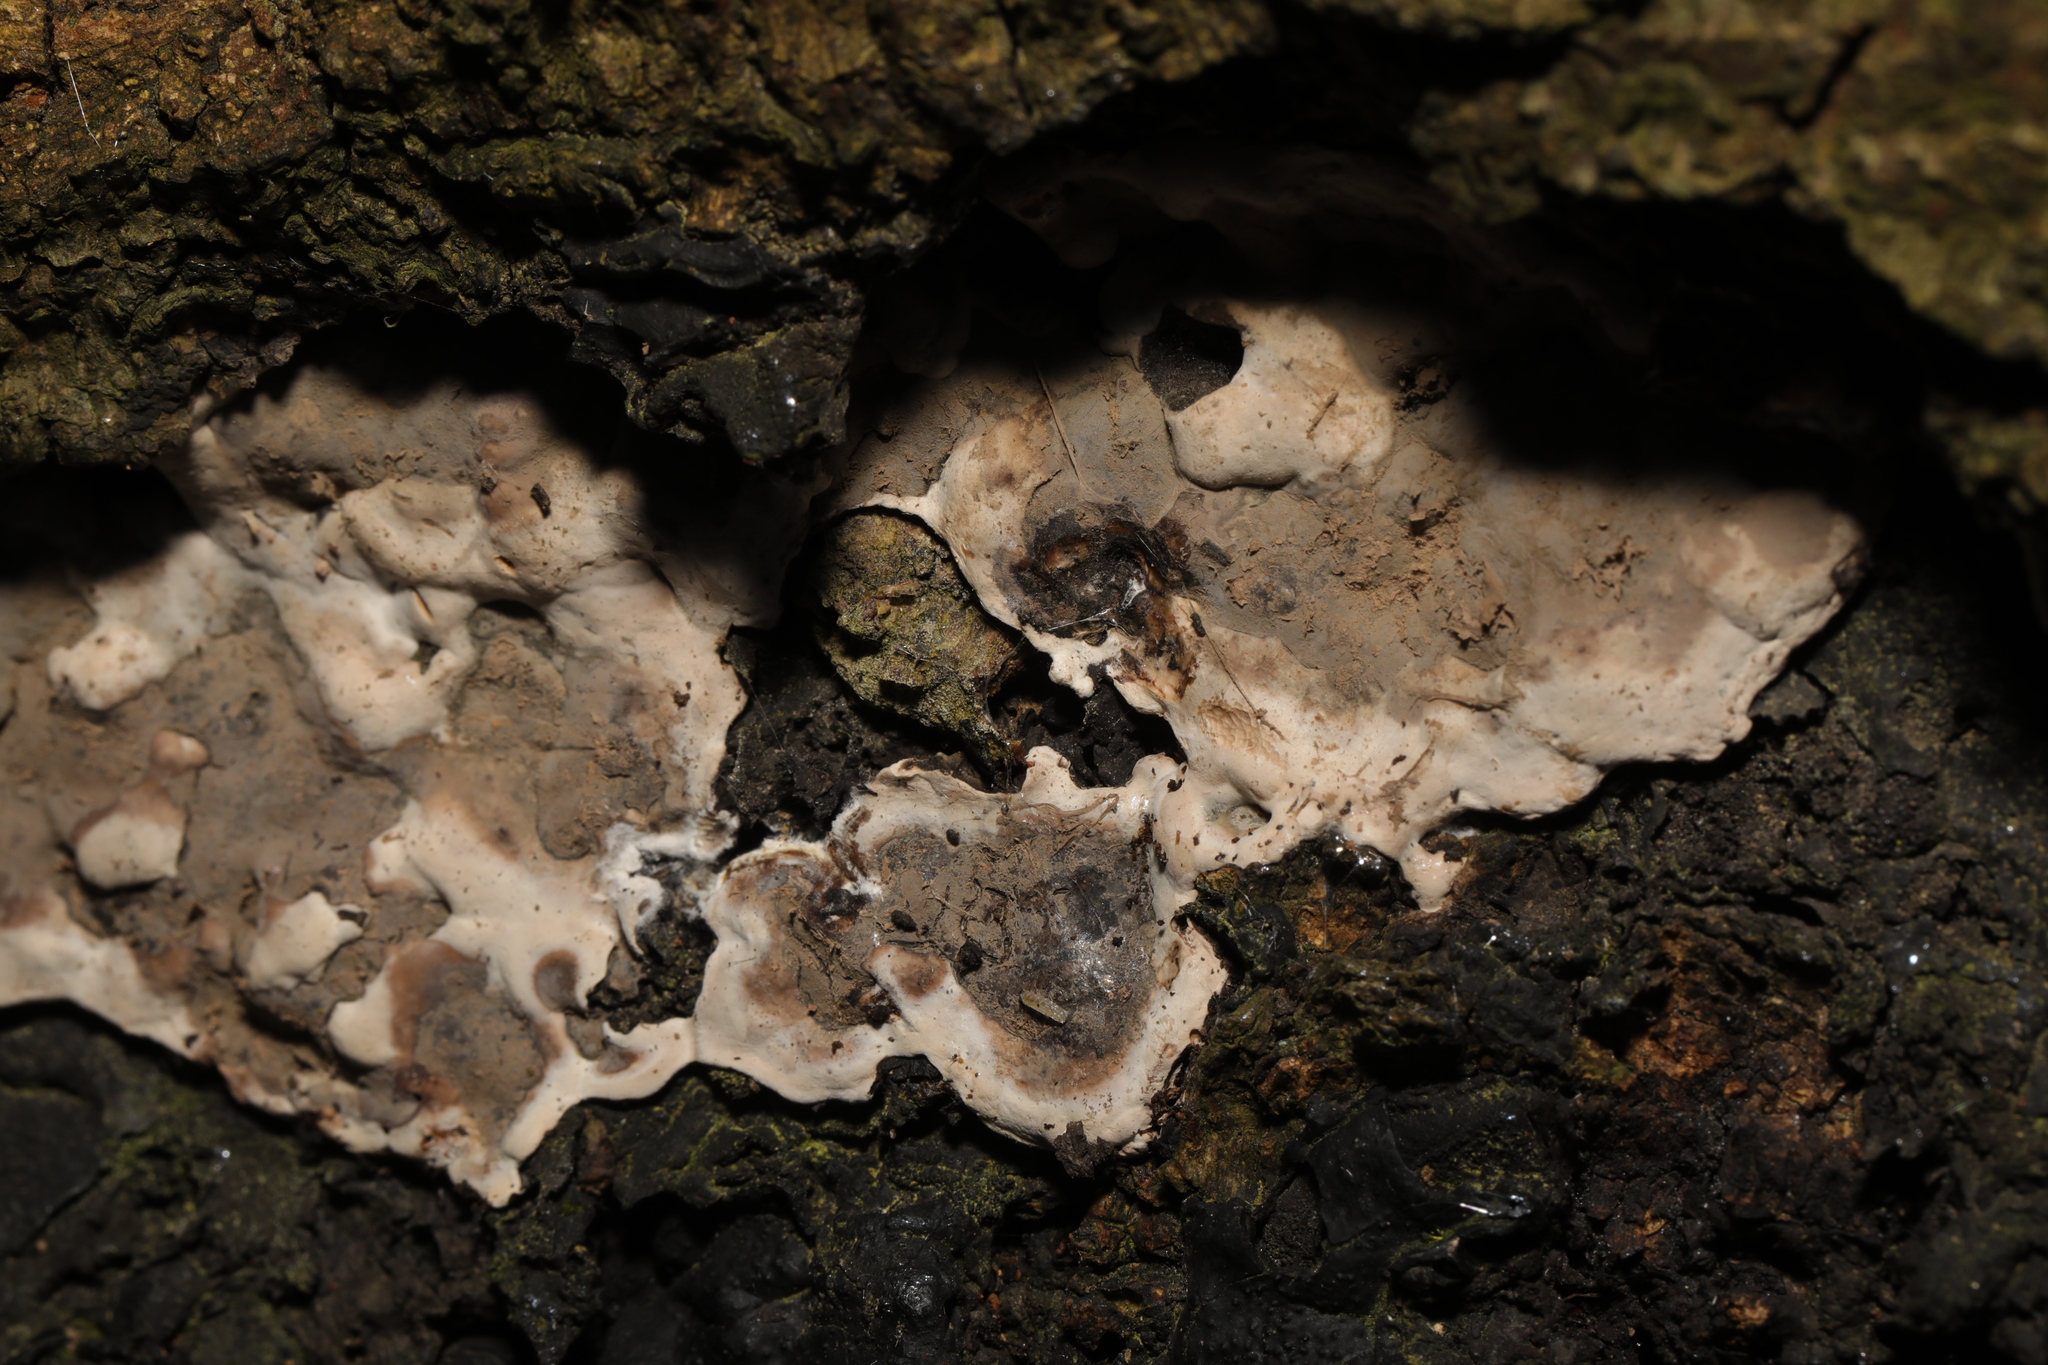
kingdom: Fungi
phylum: Ascomycota
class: Sordariomycetes
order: Xylariales
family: Xylariaceae
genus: Kretzschmaria
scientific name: Kretzschmaria deusta
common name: Brittle cinder
